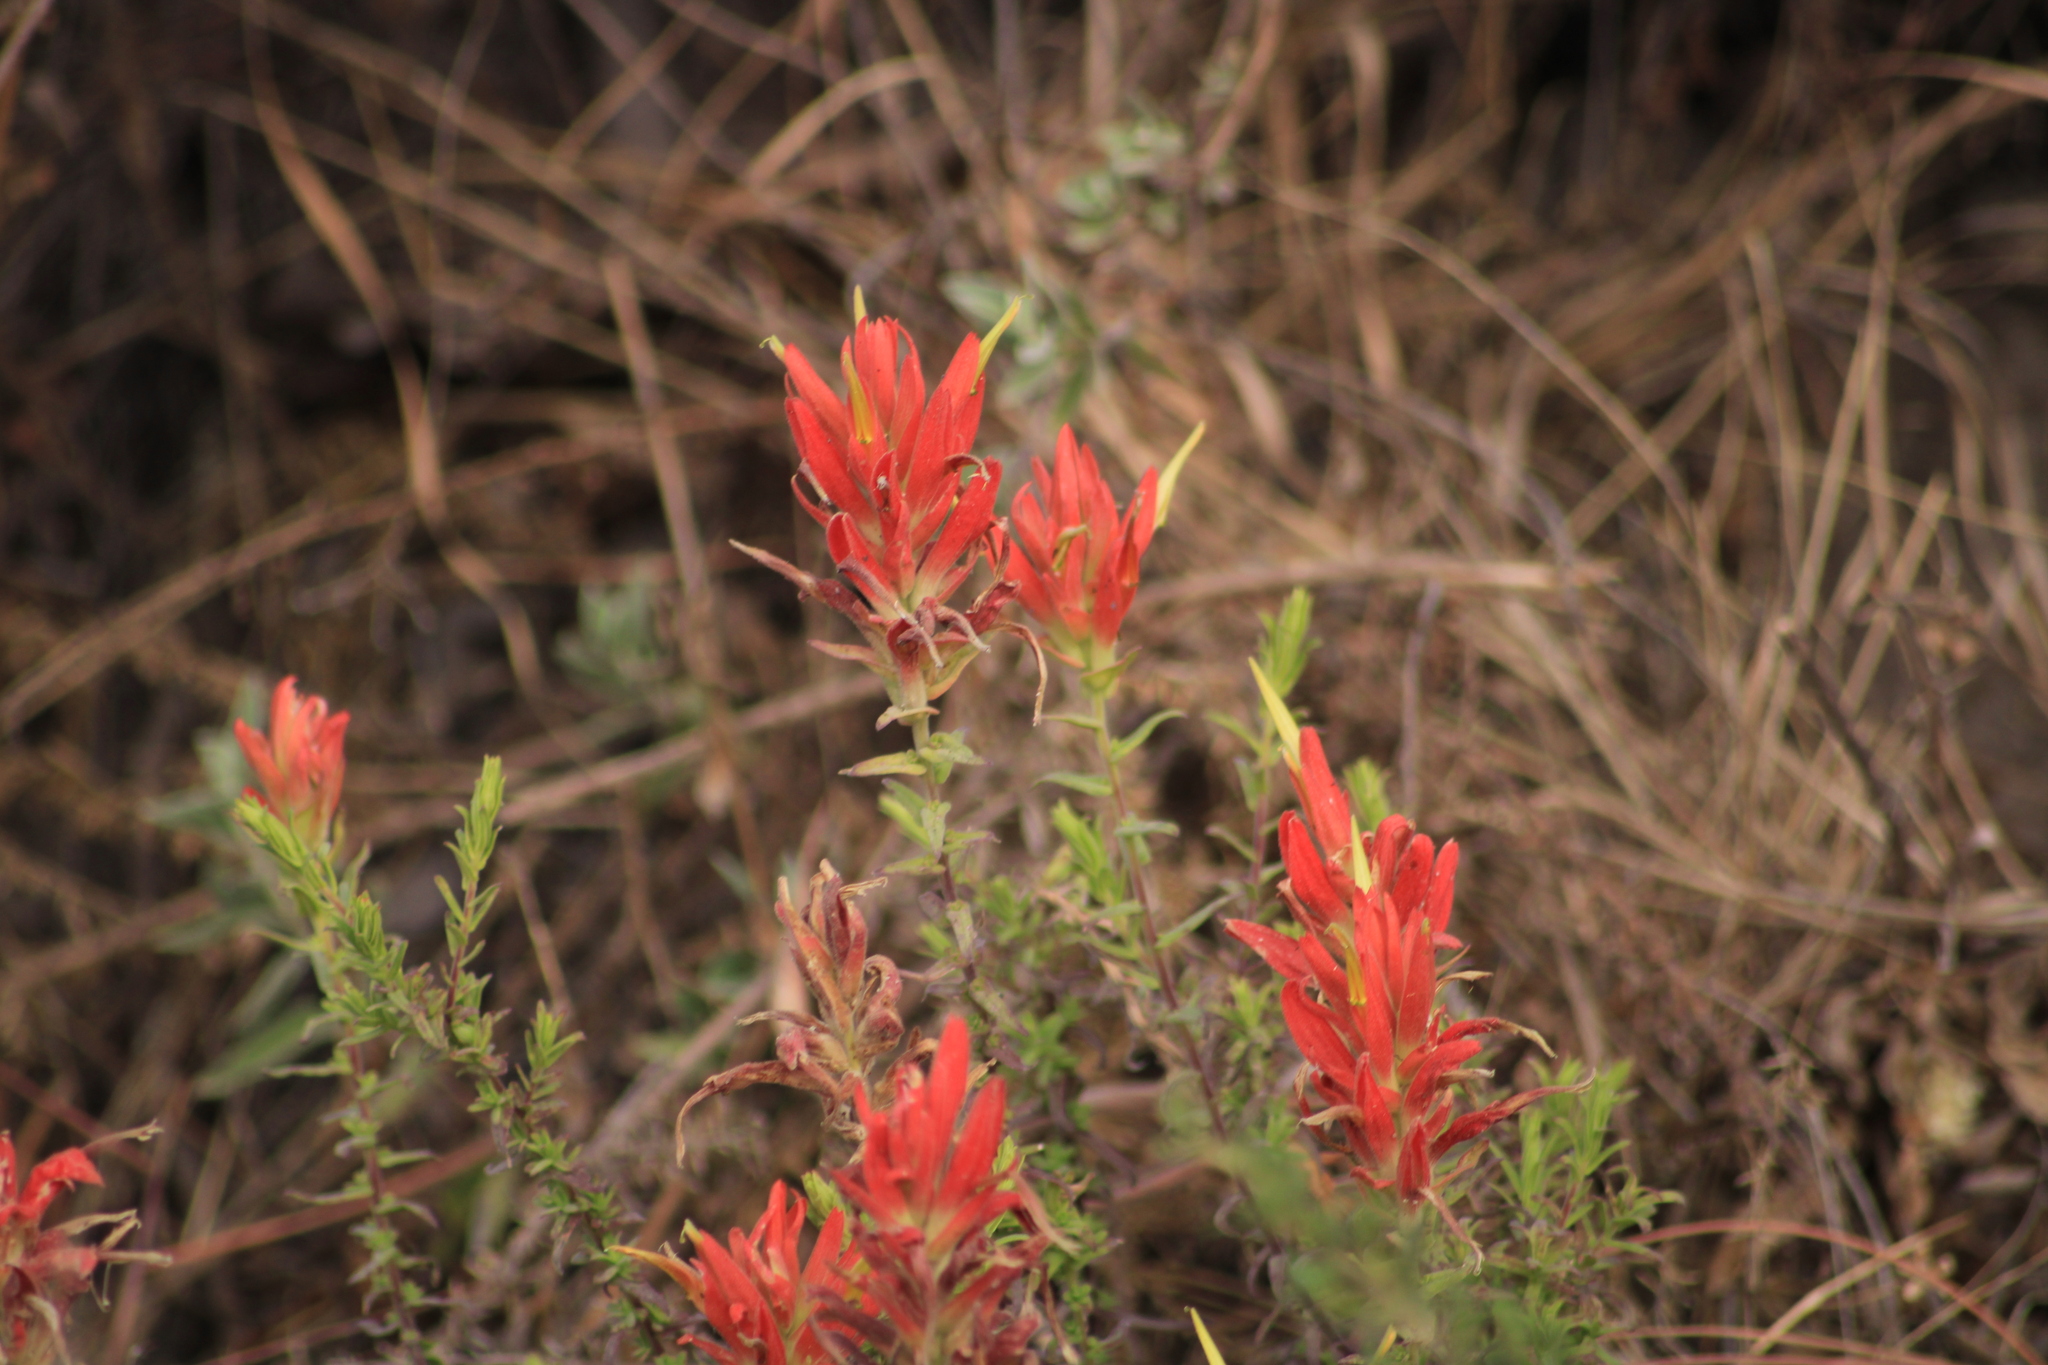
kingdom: Plantae
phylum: Tracheophyta
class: Magnoliopsida
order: Lamiales
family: Orobanchaceae
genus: Castilleja
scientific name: Castilleja tenuiflora
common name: Santa catalina indian paintbrush
